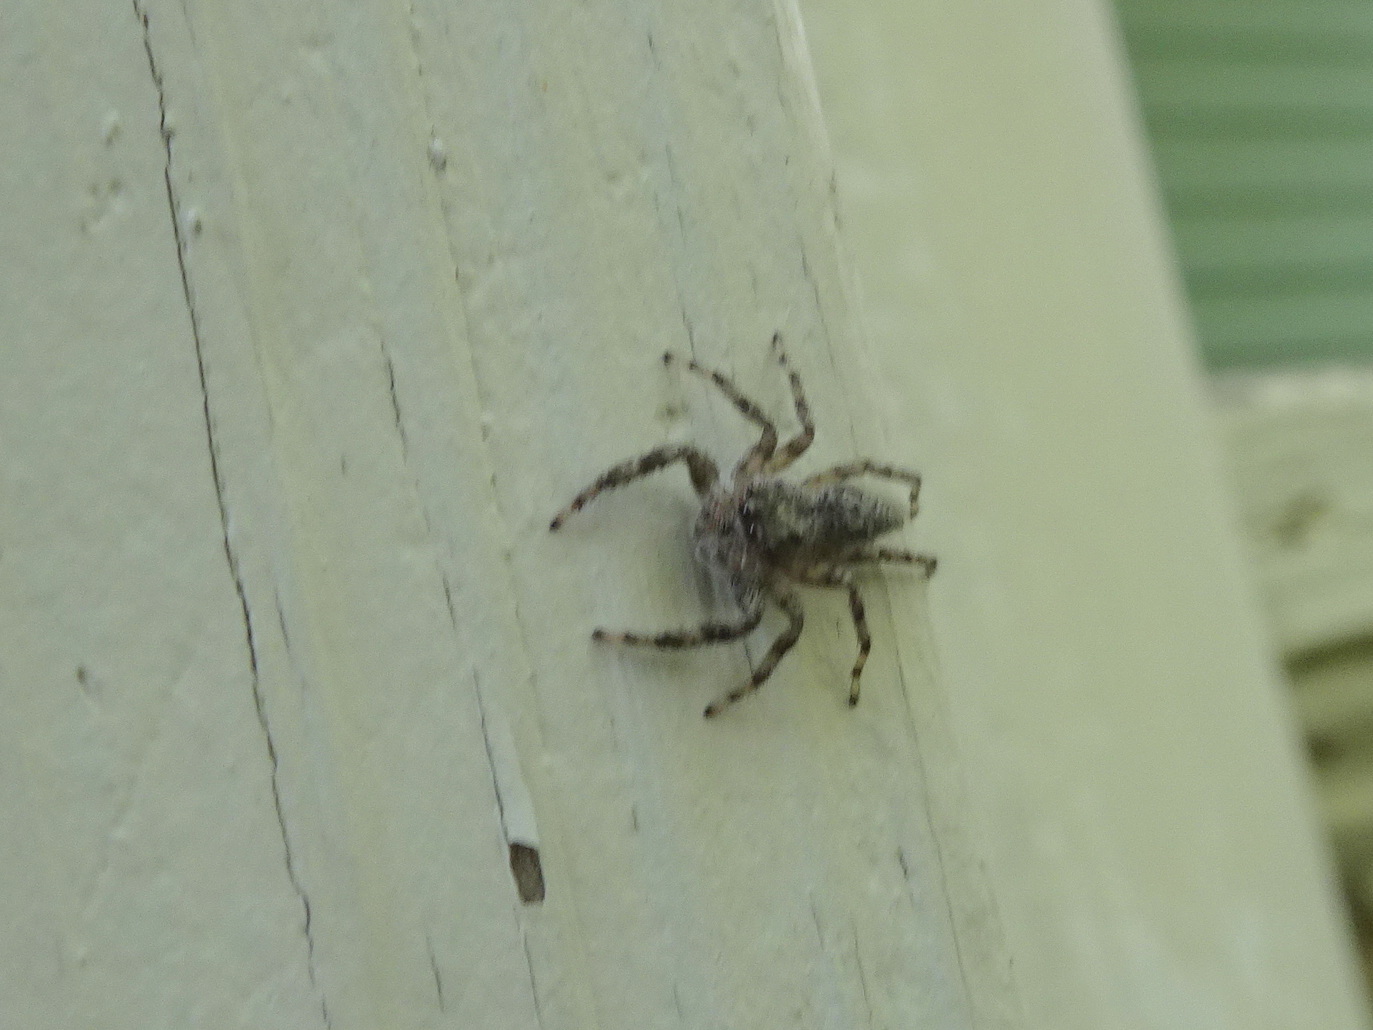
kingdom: Animalia
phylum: Arthropoda
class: Arachnida
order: Araneae
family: Salticidae
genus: Platycryptus
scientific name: Platycryptus undatus
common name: Tan jumping spider
